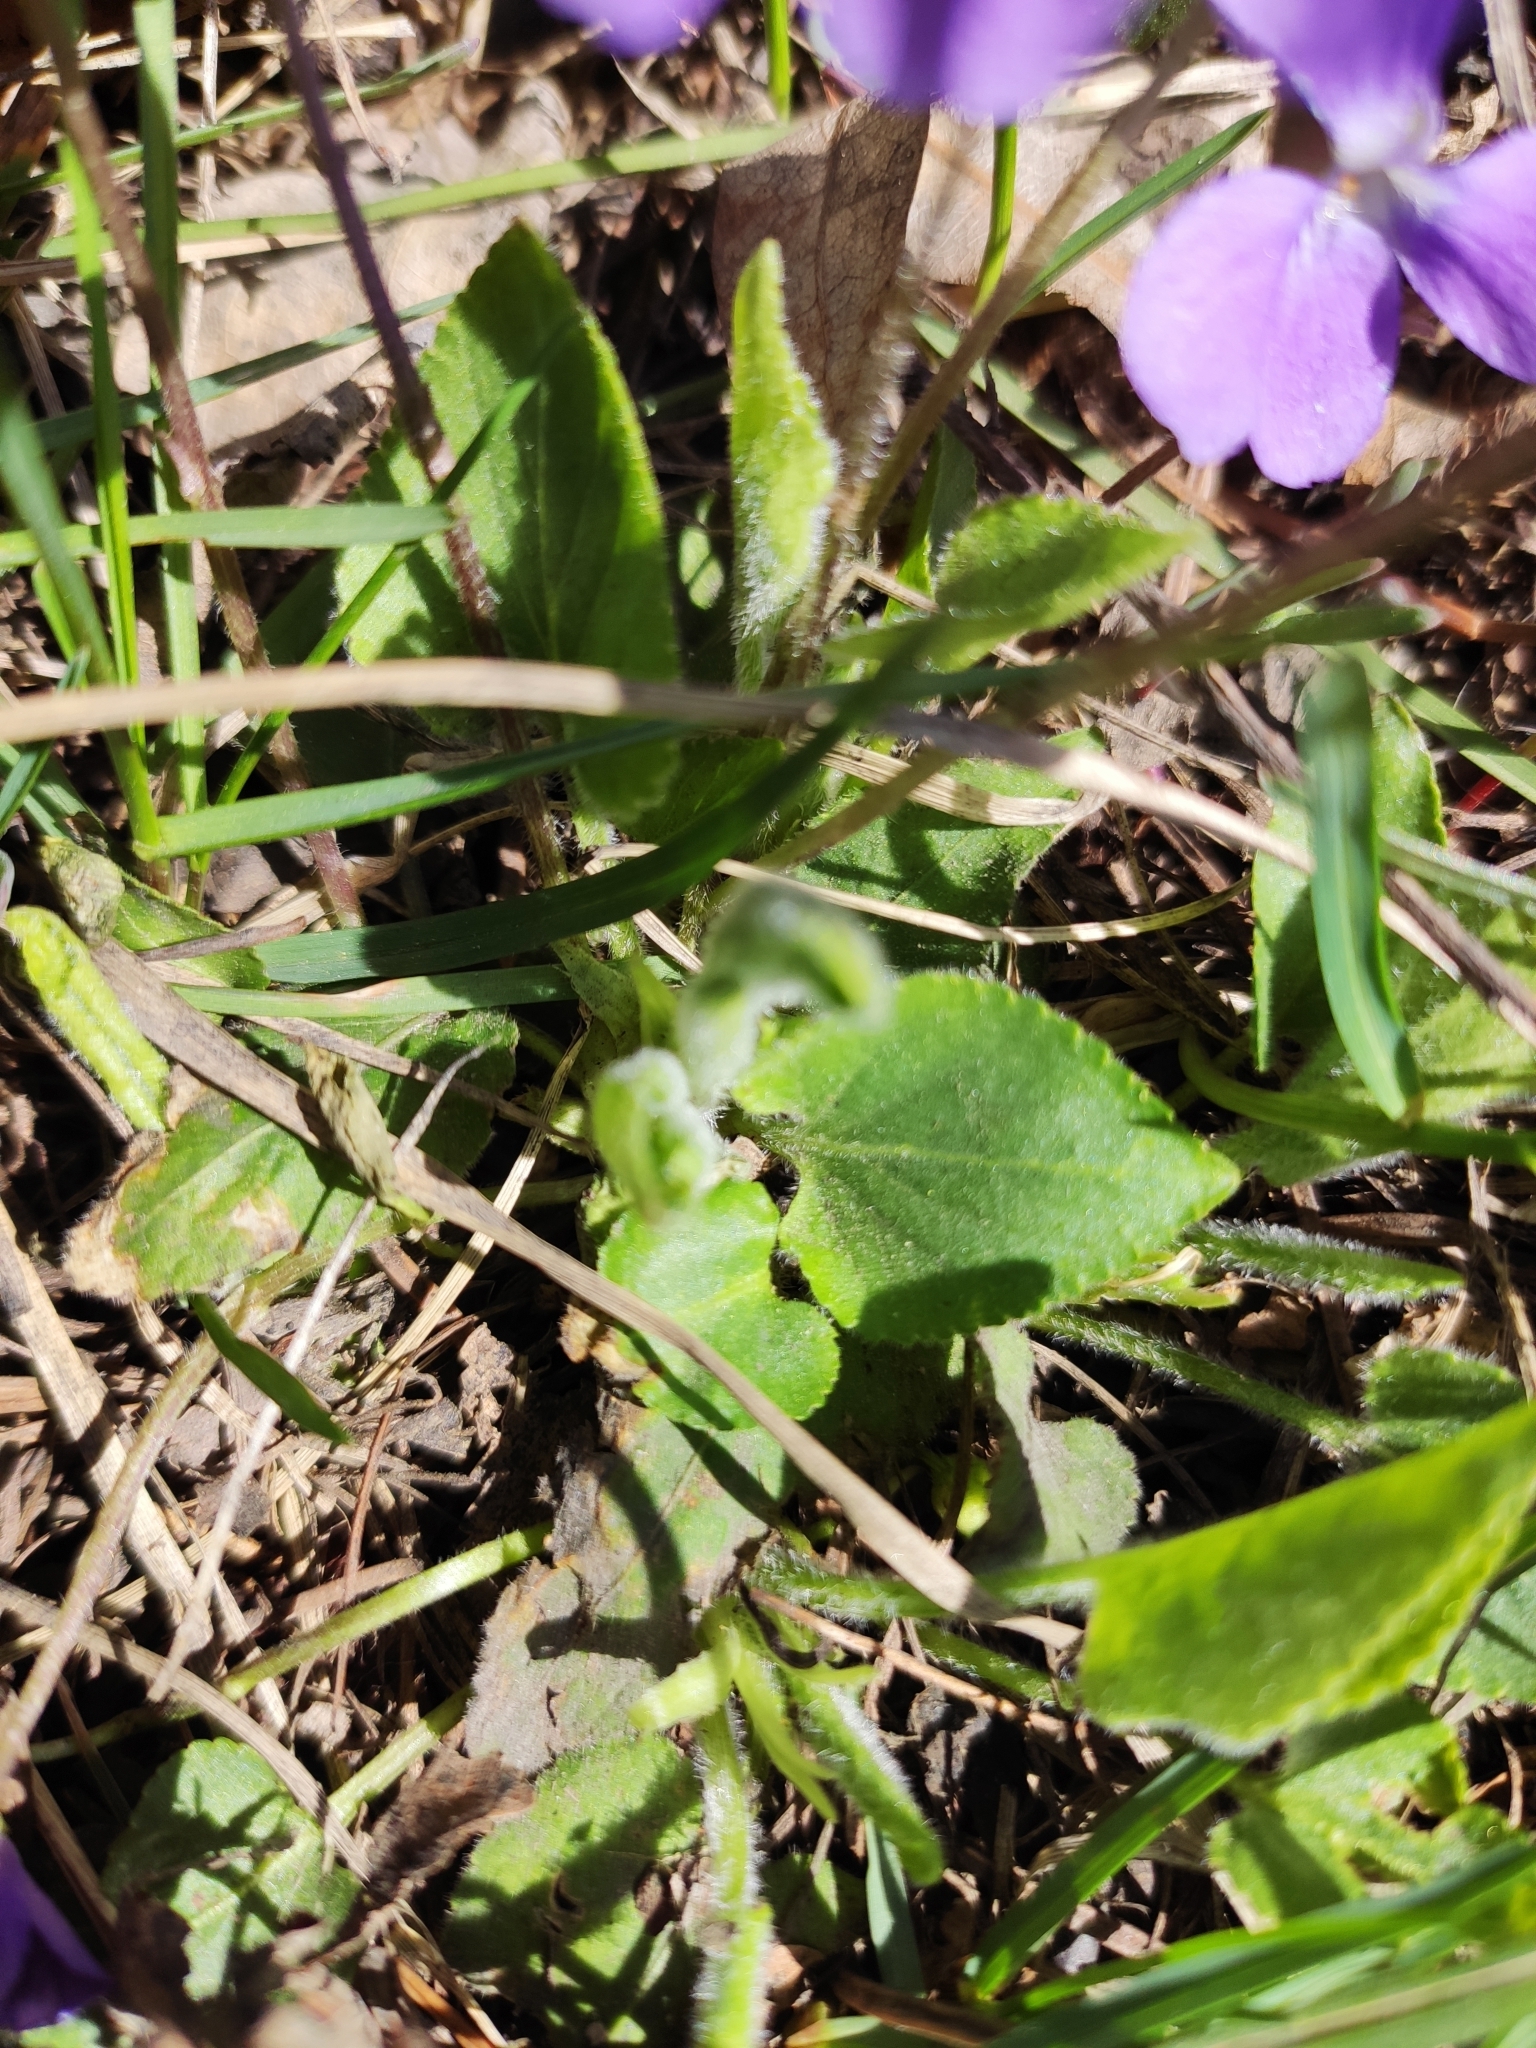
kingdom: Plantae
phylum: Tracheophyta
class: Magnoliopsida
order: Malpighiales
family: Violaceae
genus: Viola
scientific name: Viola hirta
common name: Hairy violet
